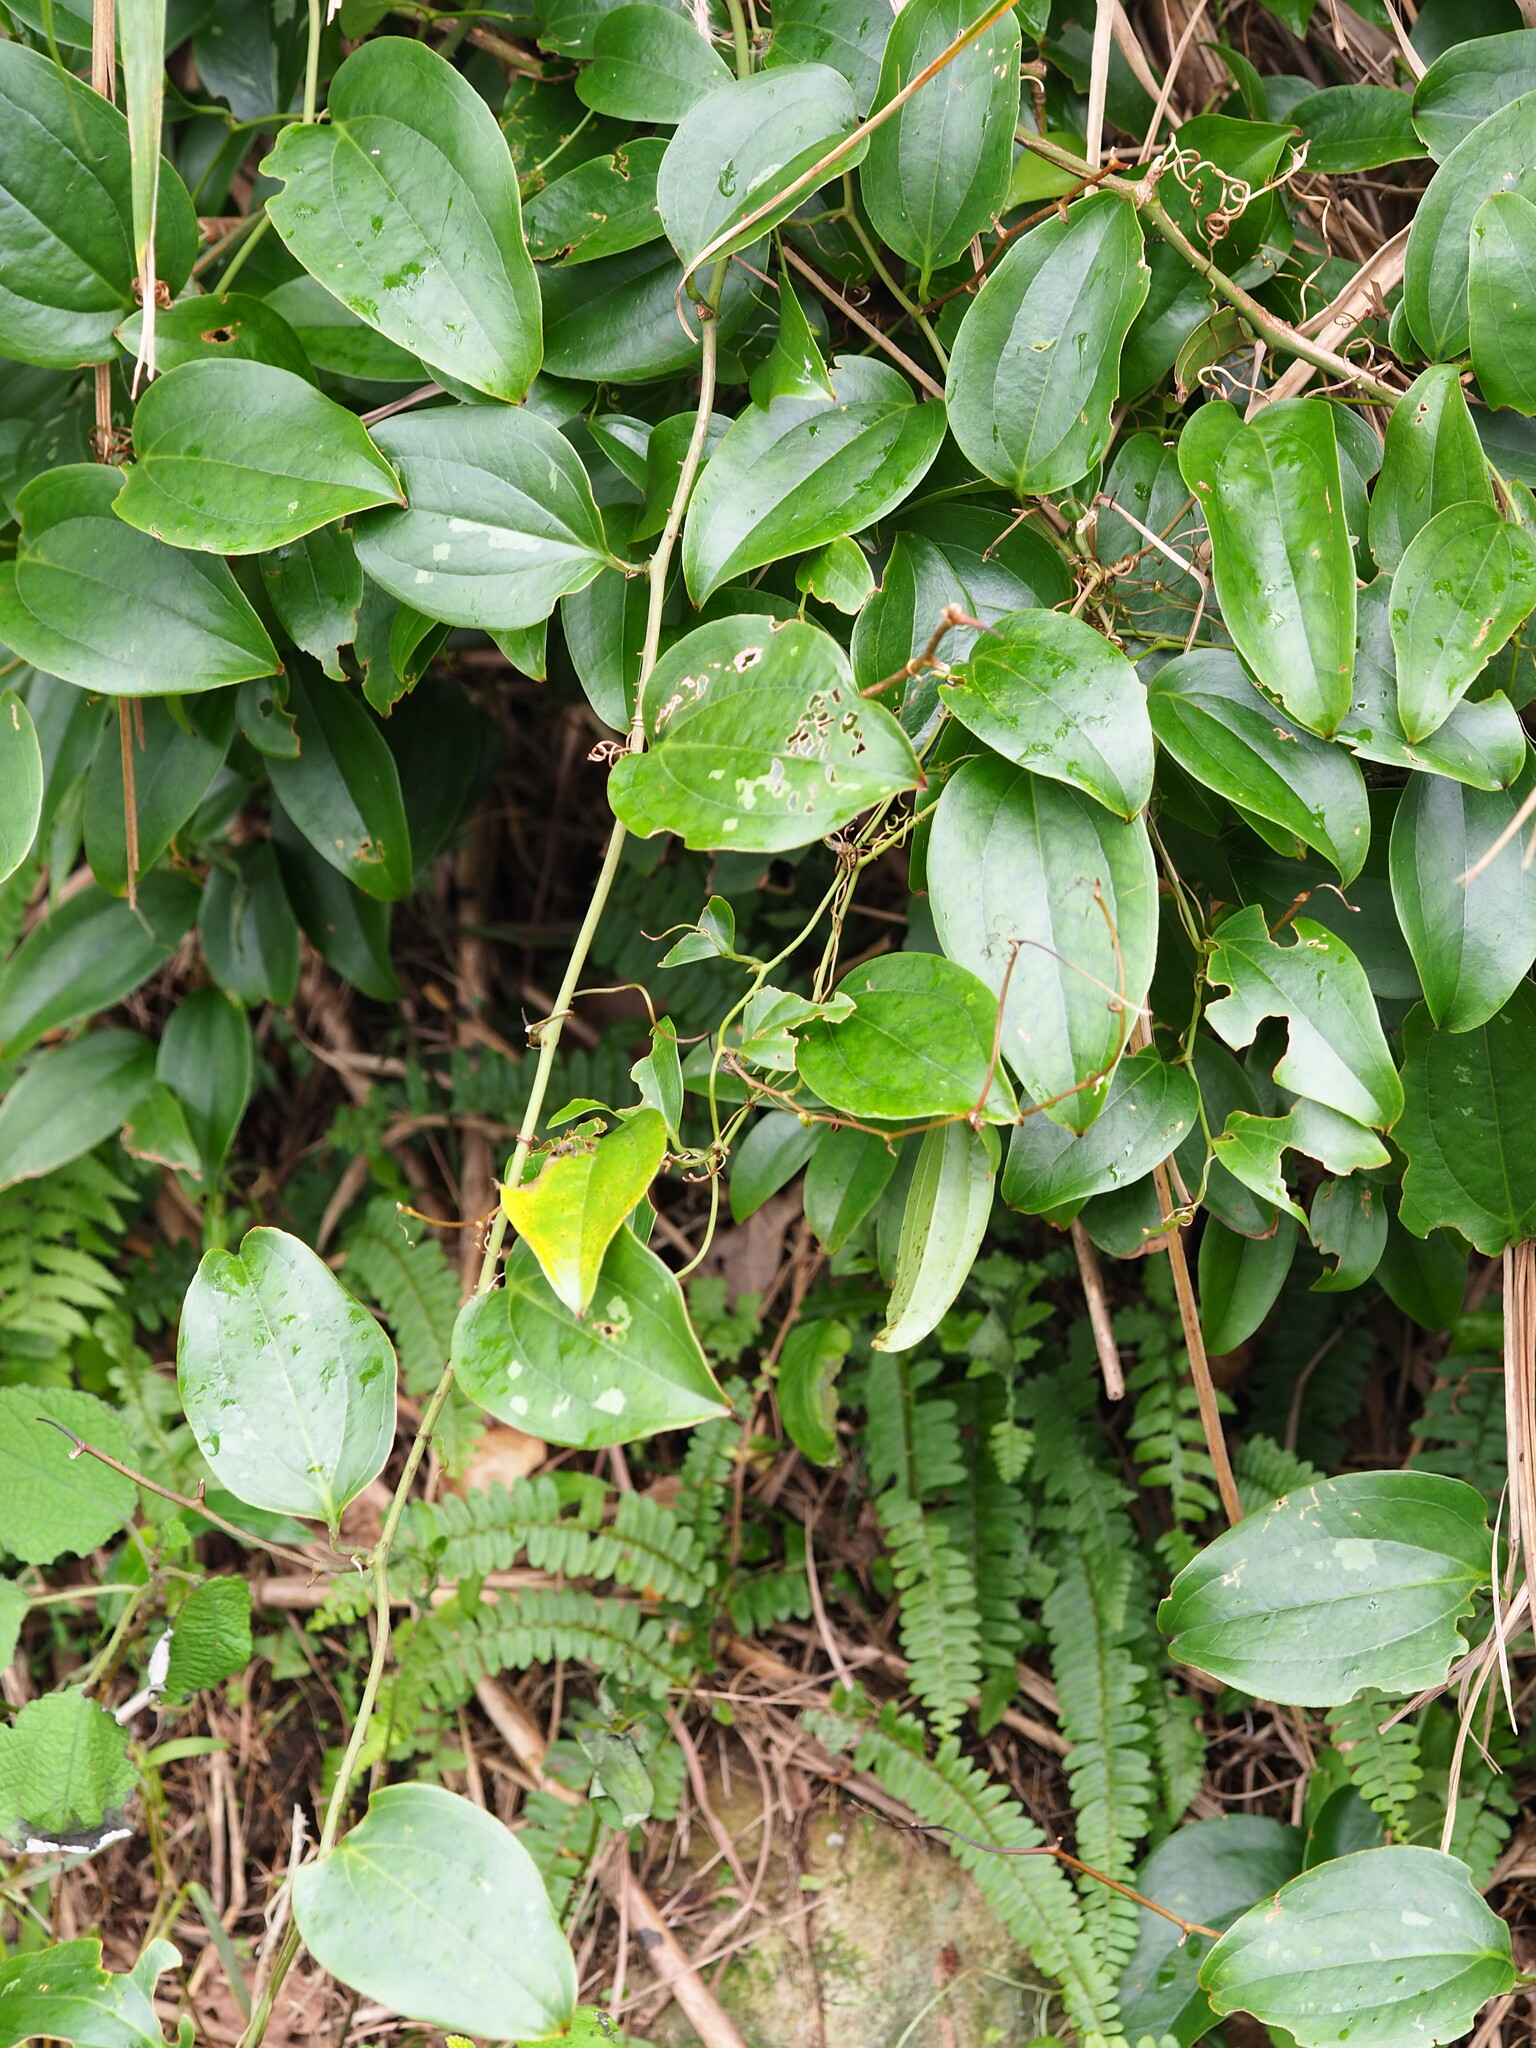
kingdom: Plantae
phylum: Tracheophyta
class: Liliopsida
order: Liliales
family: Smilacaceae
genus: Smilax
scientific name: Smilax bracteata
